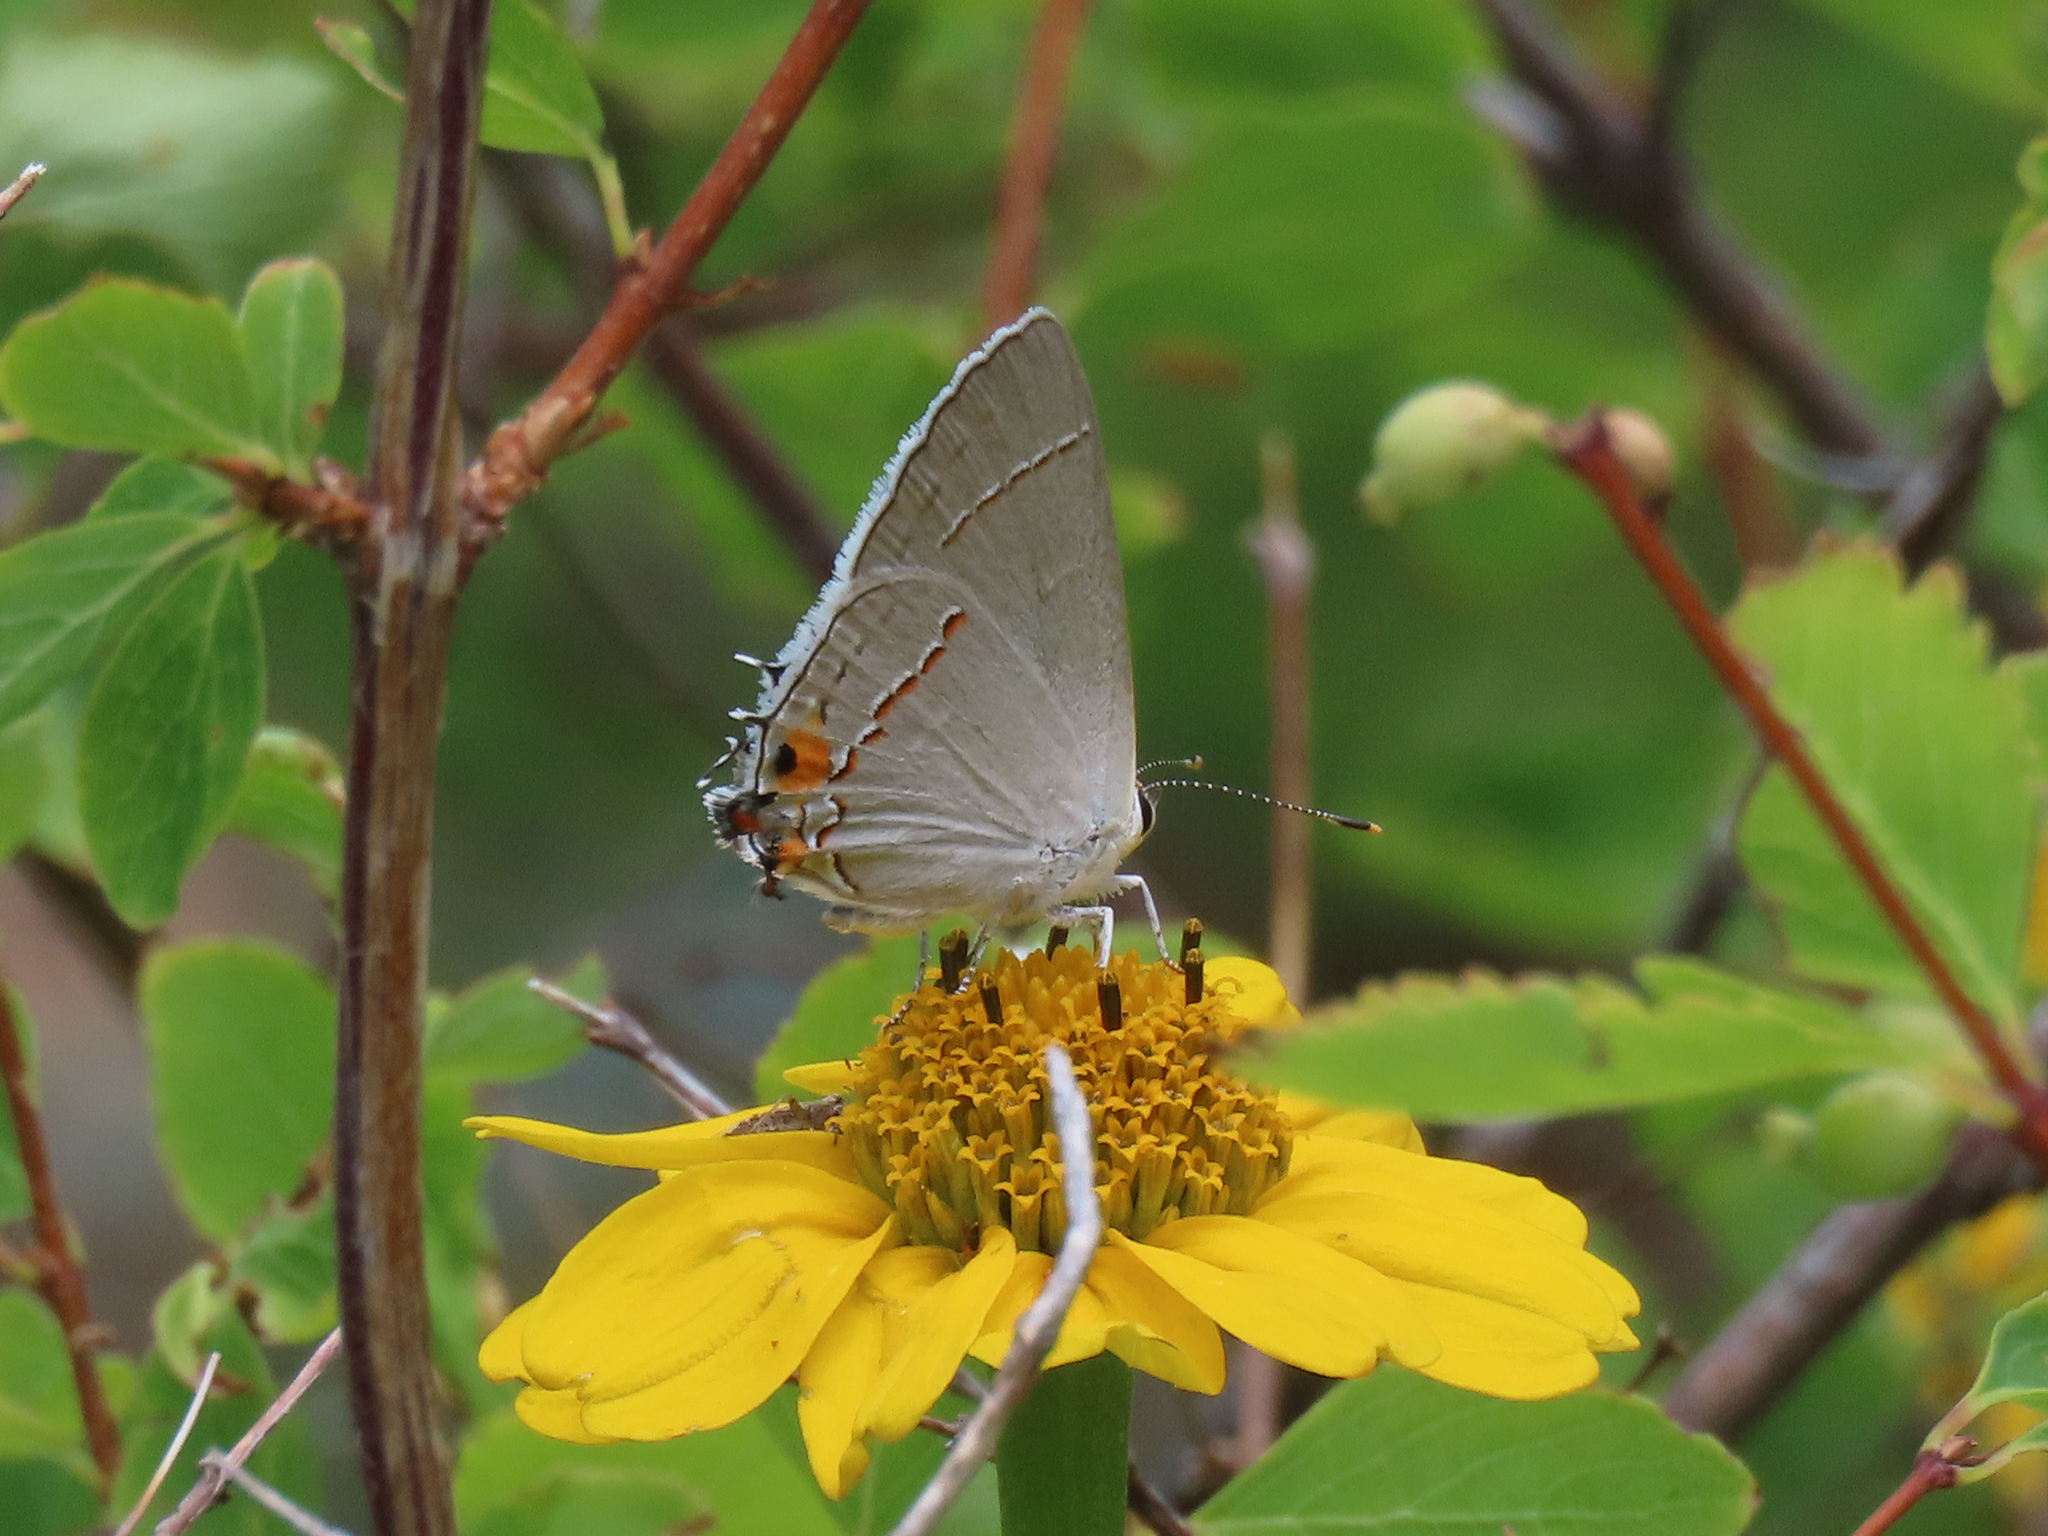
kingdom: Animalia
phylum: Arthropoda
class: Insecta
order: Lepidoptera
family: Lycaenidae
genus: Strymon
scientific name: Strymon melinus
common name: Gray hairstreak
